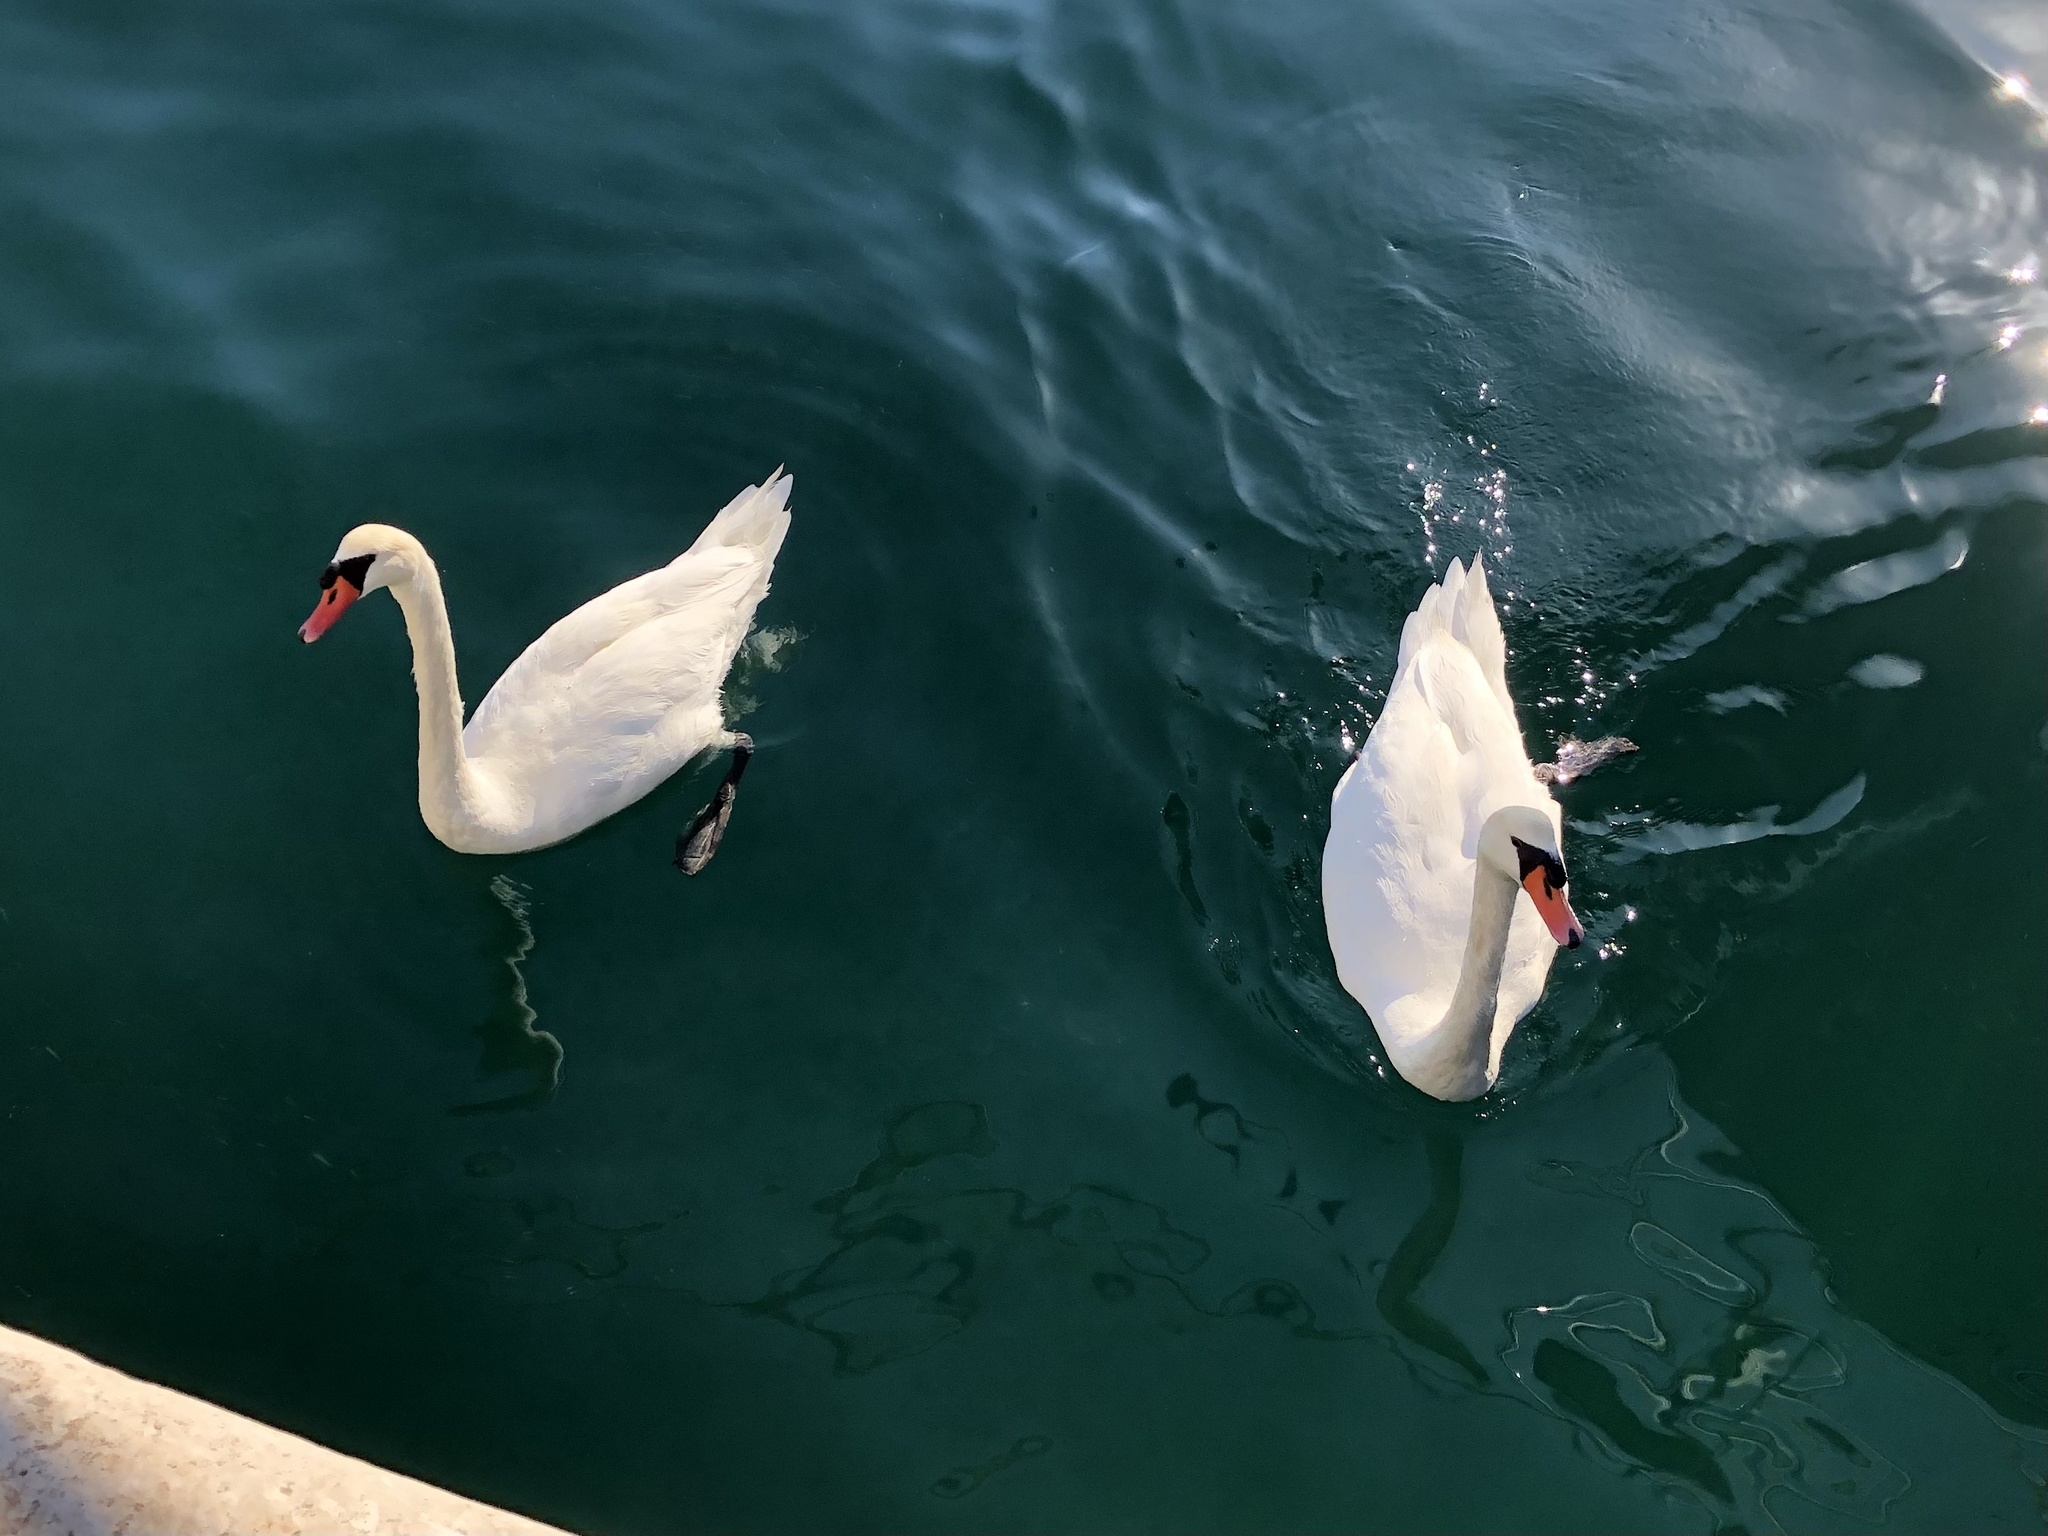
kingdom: Animalia
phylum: Chordata
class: Aves
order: Anseriformes
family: Anatidae
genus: Cygnus
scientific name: Cygnus olor
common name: Mute swan
